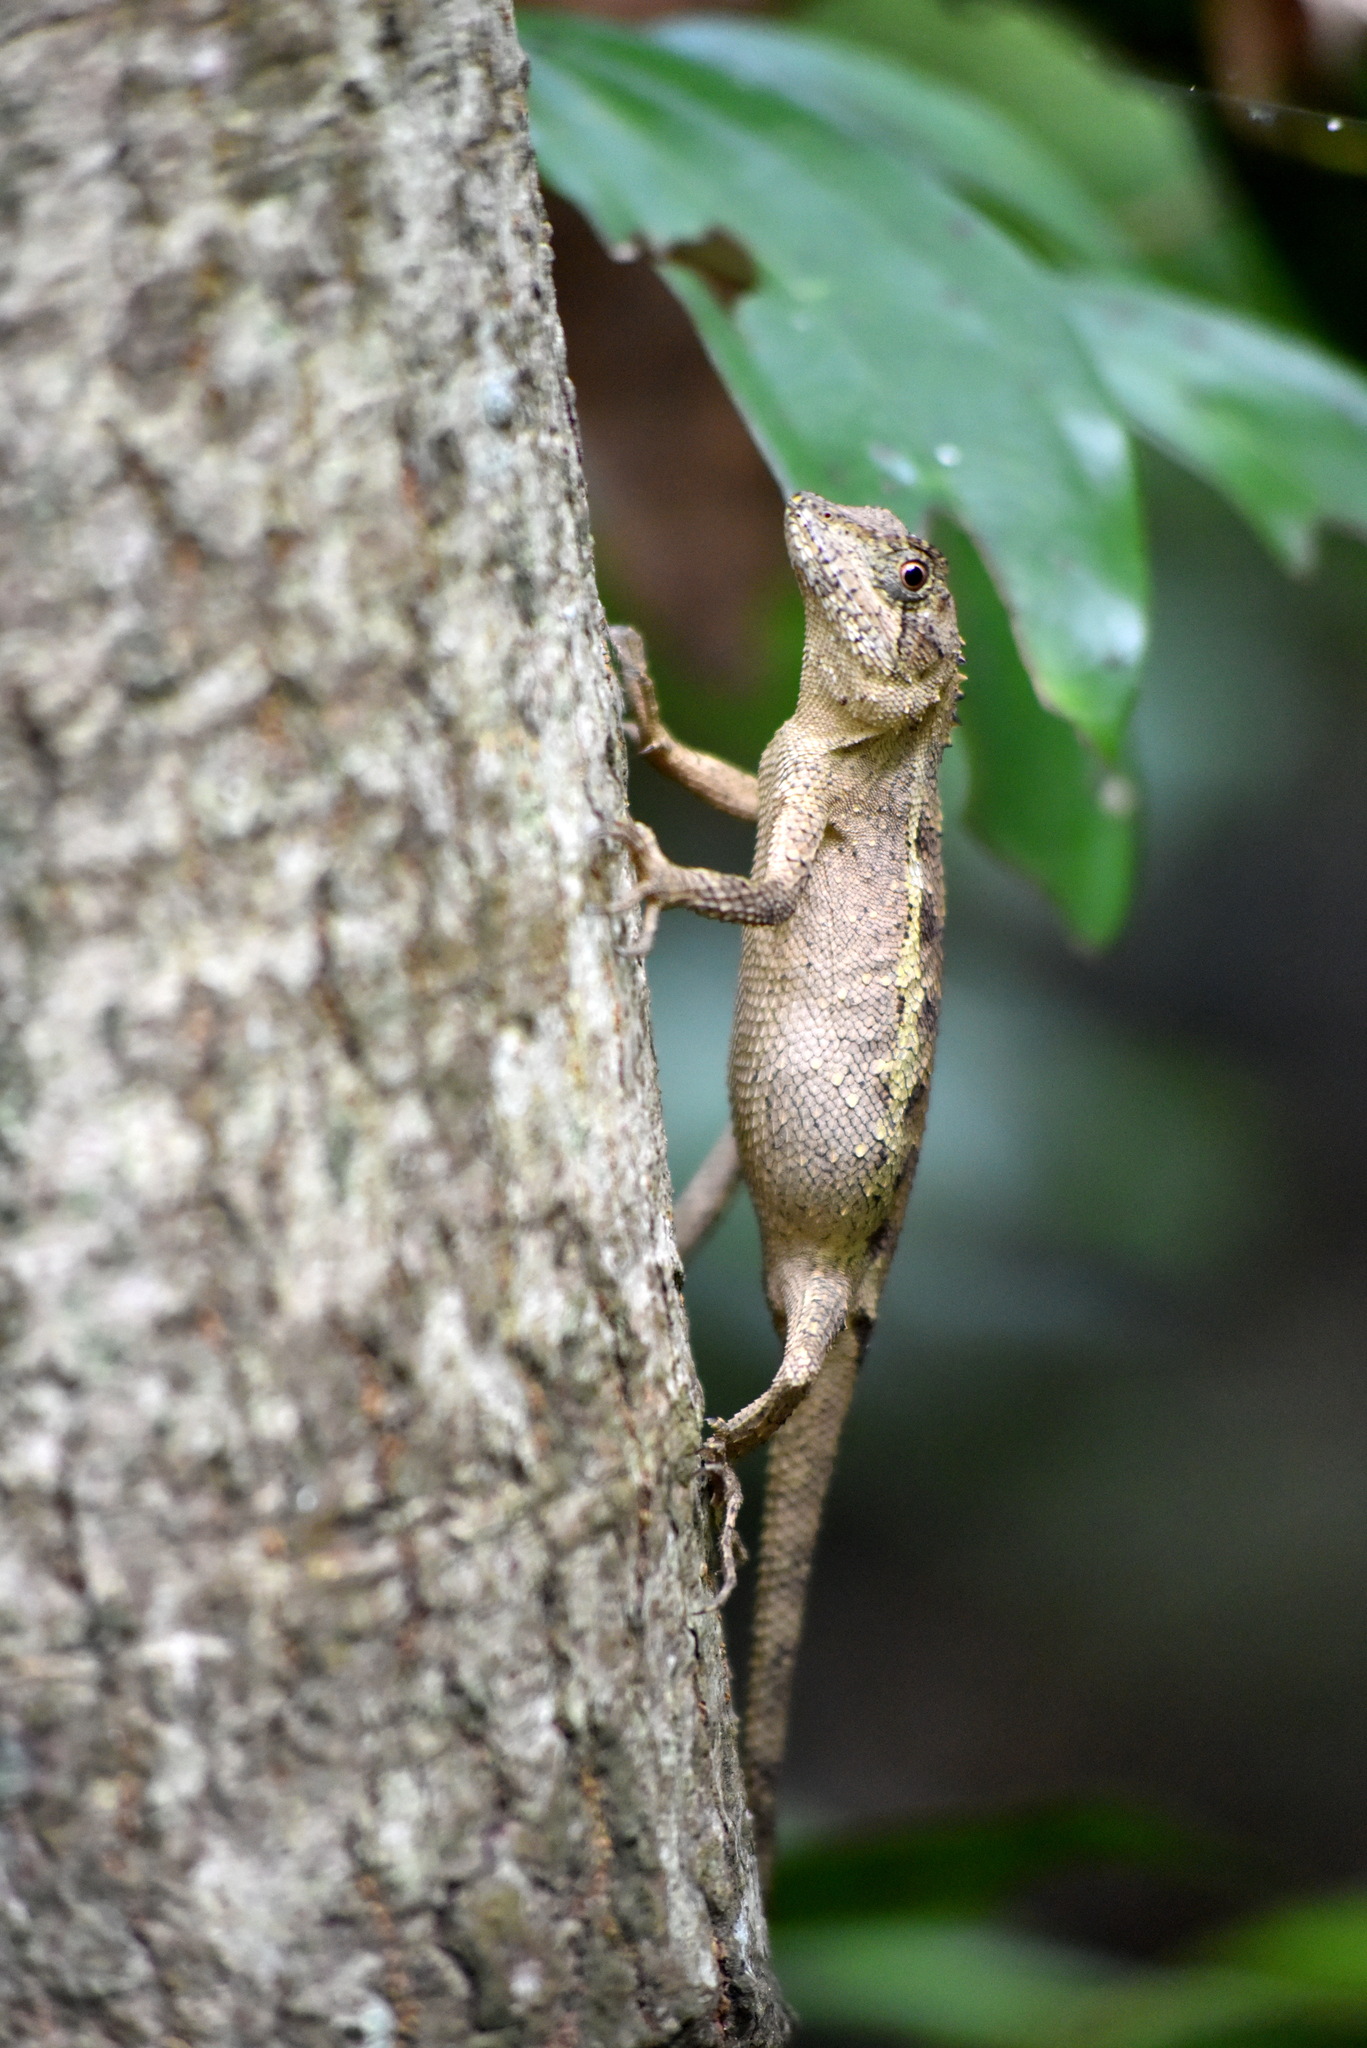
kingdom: Animalia
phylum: Chordata
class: Squamata
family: Agamidae
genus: Diploderma
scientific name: Diploderma swinhonis
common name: Taiwan japalure
